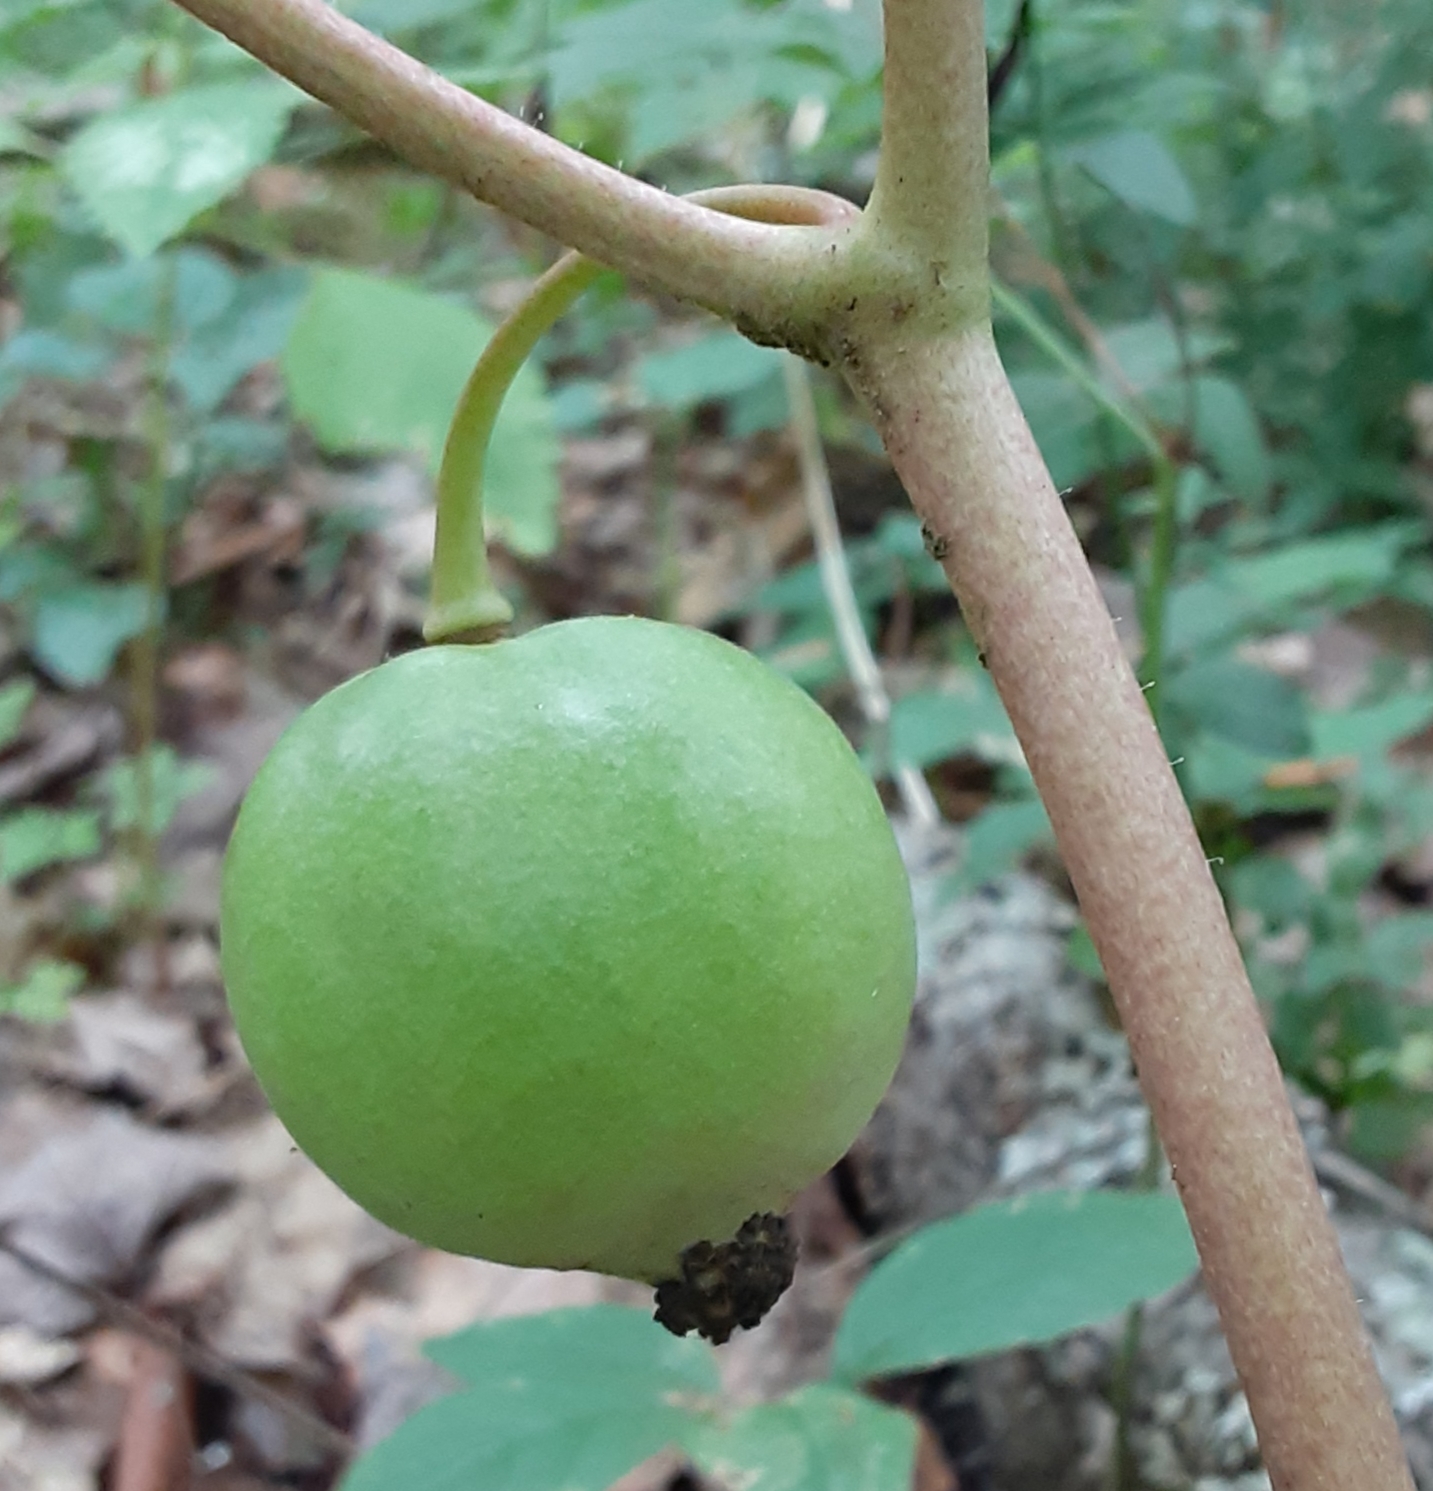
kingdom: Plantae
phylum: Tracheophyta
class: Magnoliopsida
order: Ranunculales
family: Berberidaceae
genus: Podophyllum
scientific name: Podophyllum peltatum
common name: Wild mandrake
